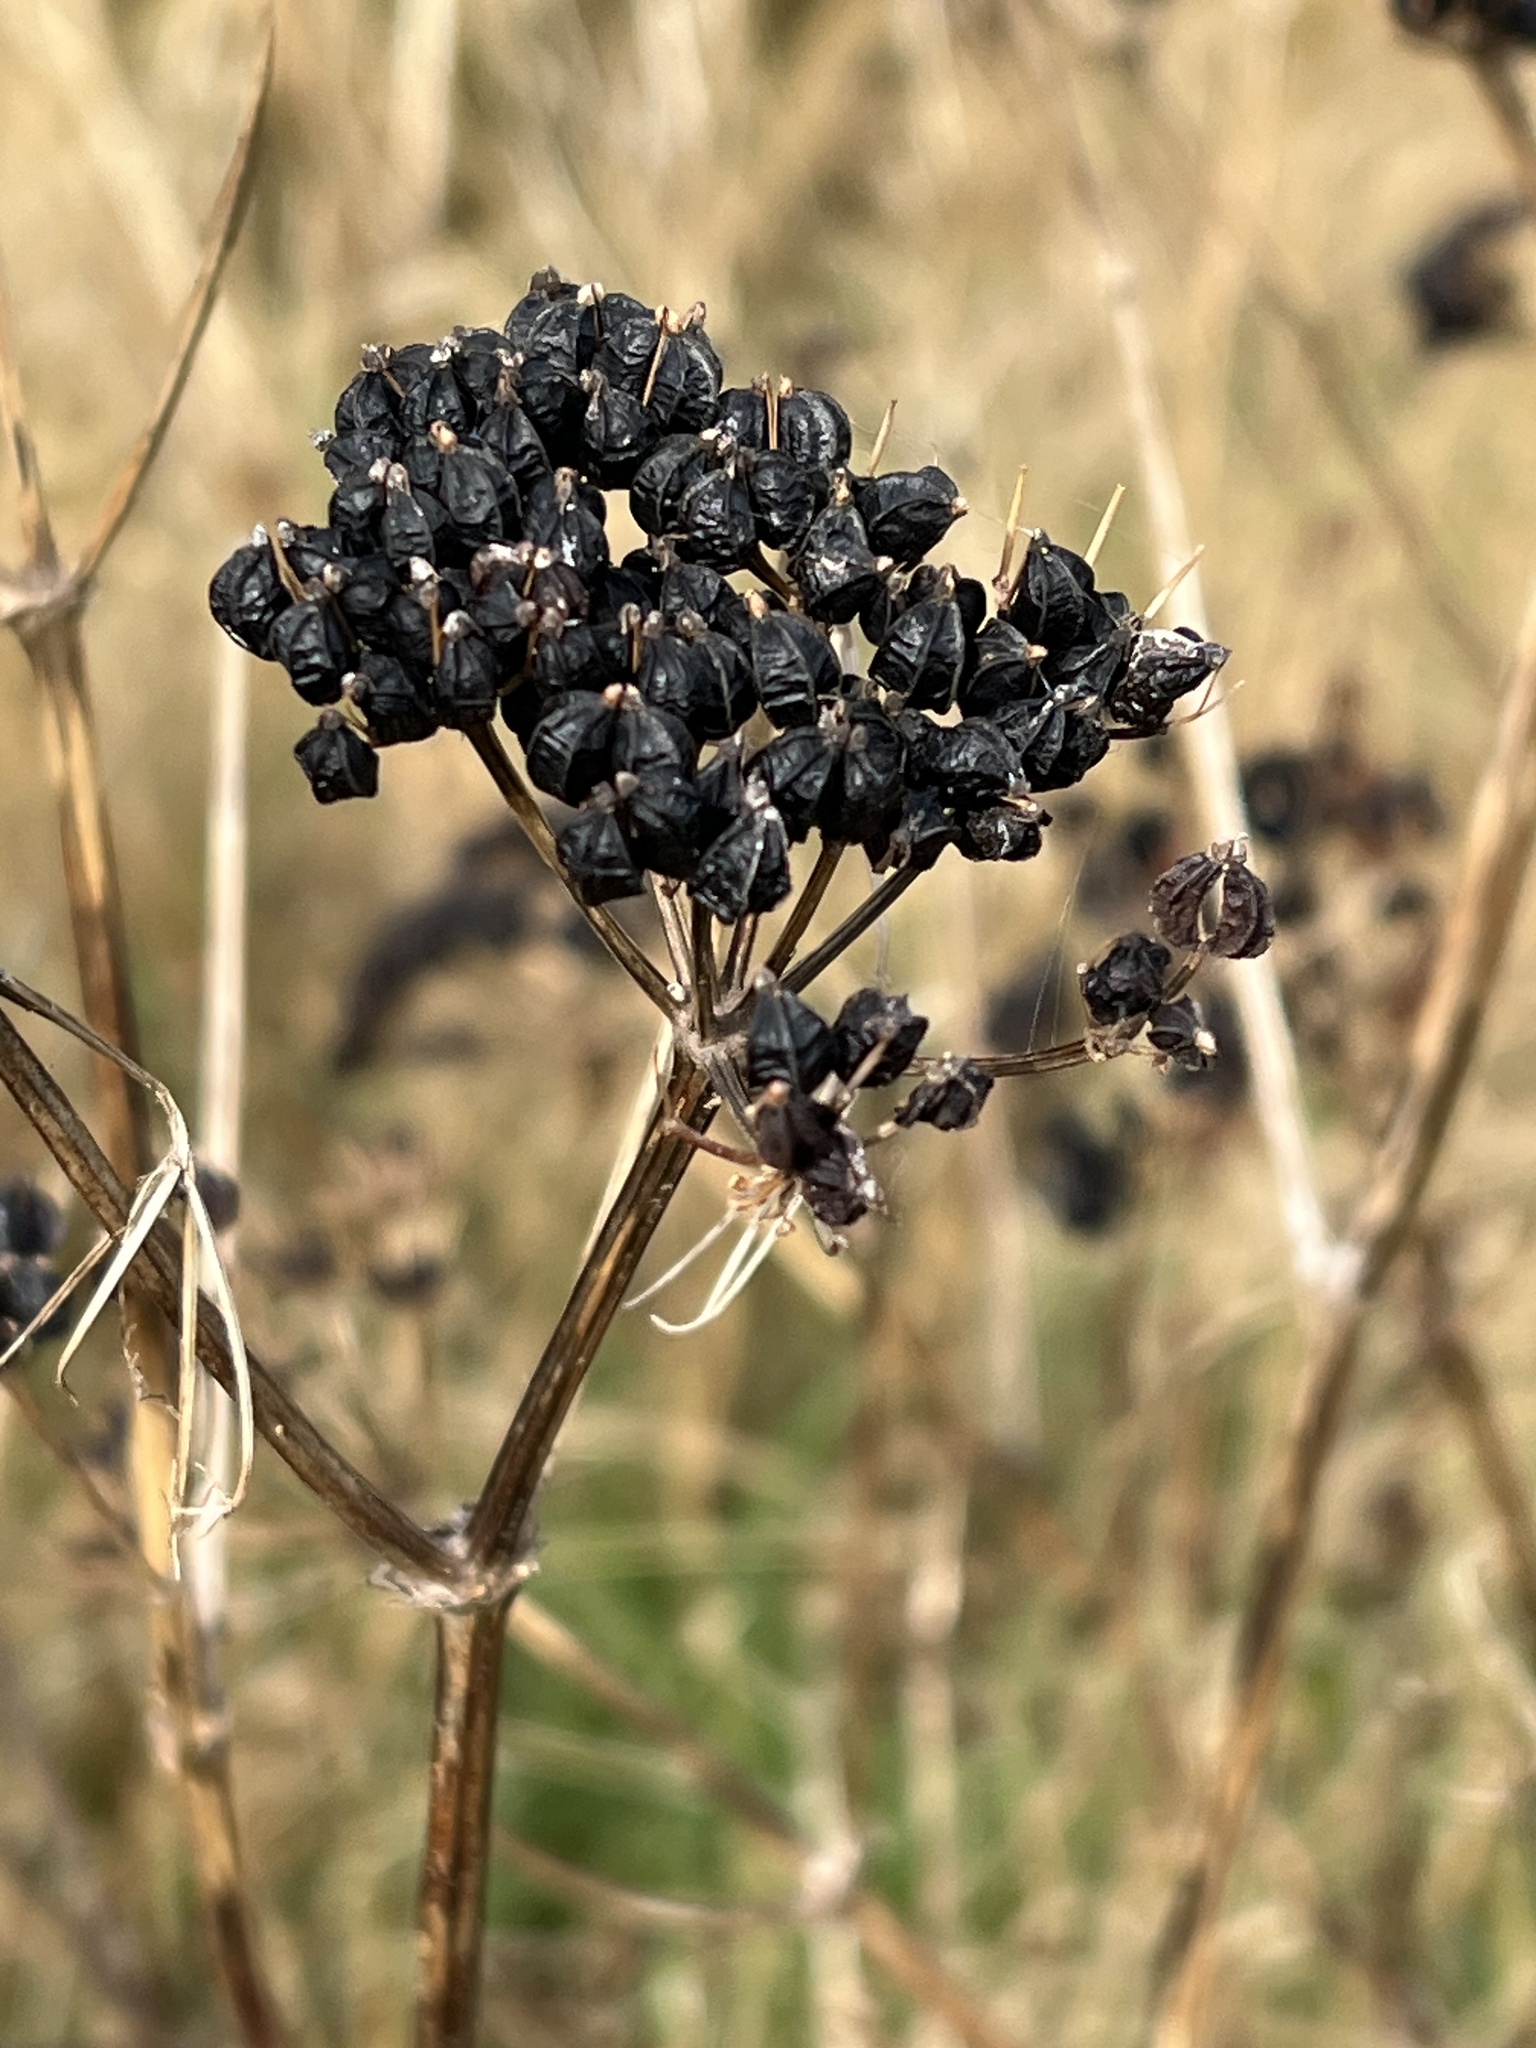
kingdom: Plantae
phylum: Tracheophyta
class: Magnoliopsida
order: Apiales
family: Apiaceae
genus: Smyrnium
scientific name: Smyrnium olusatrum
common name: Alexanders
